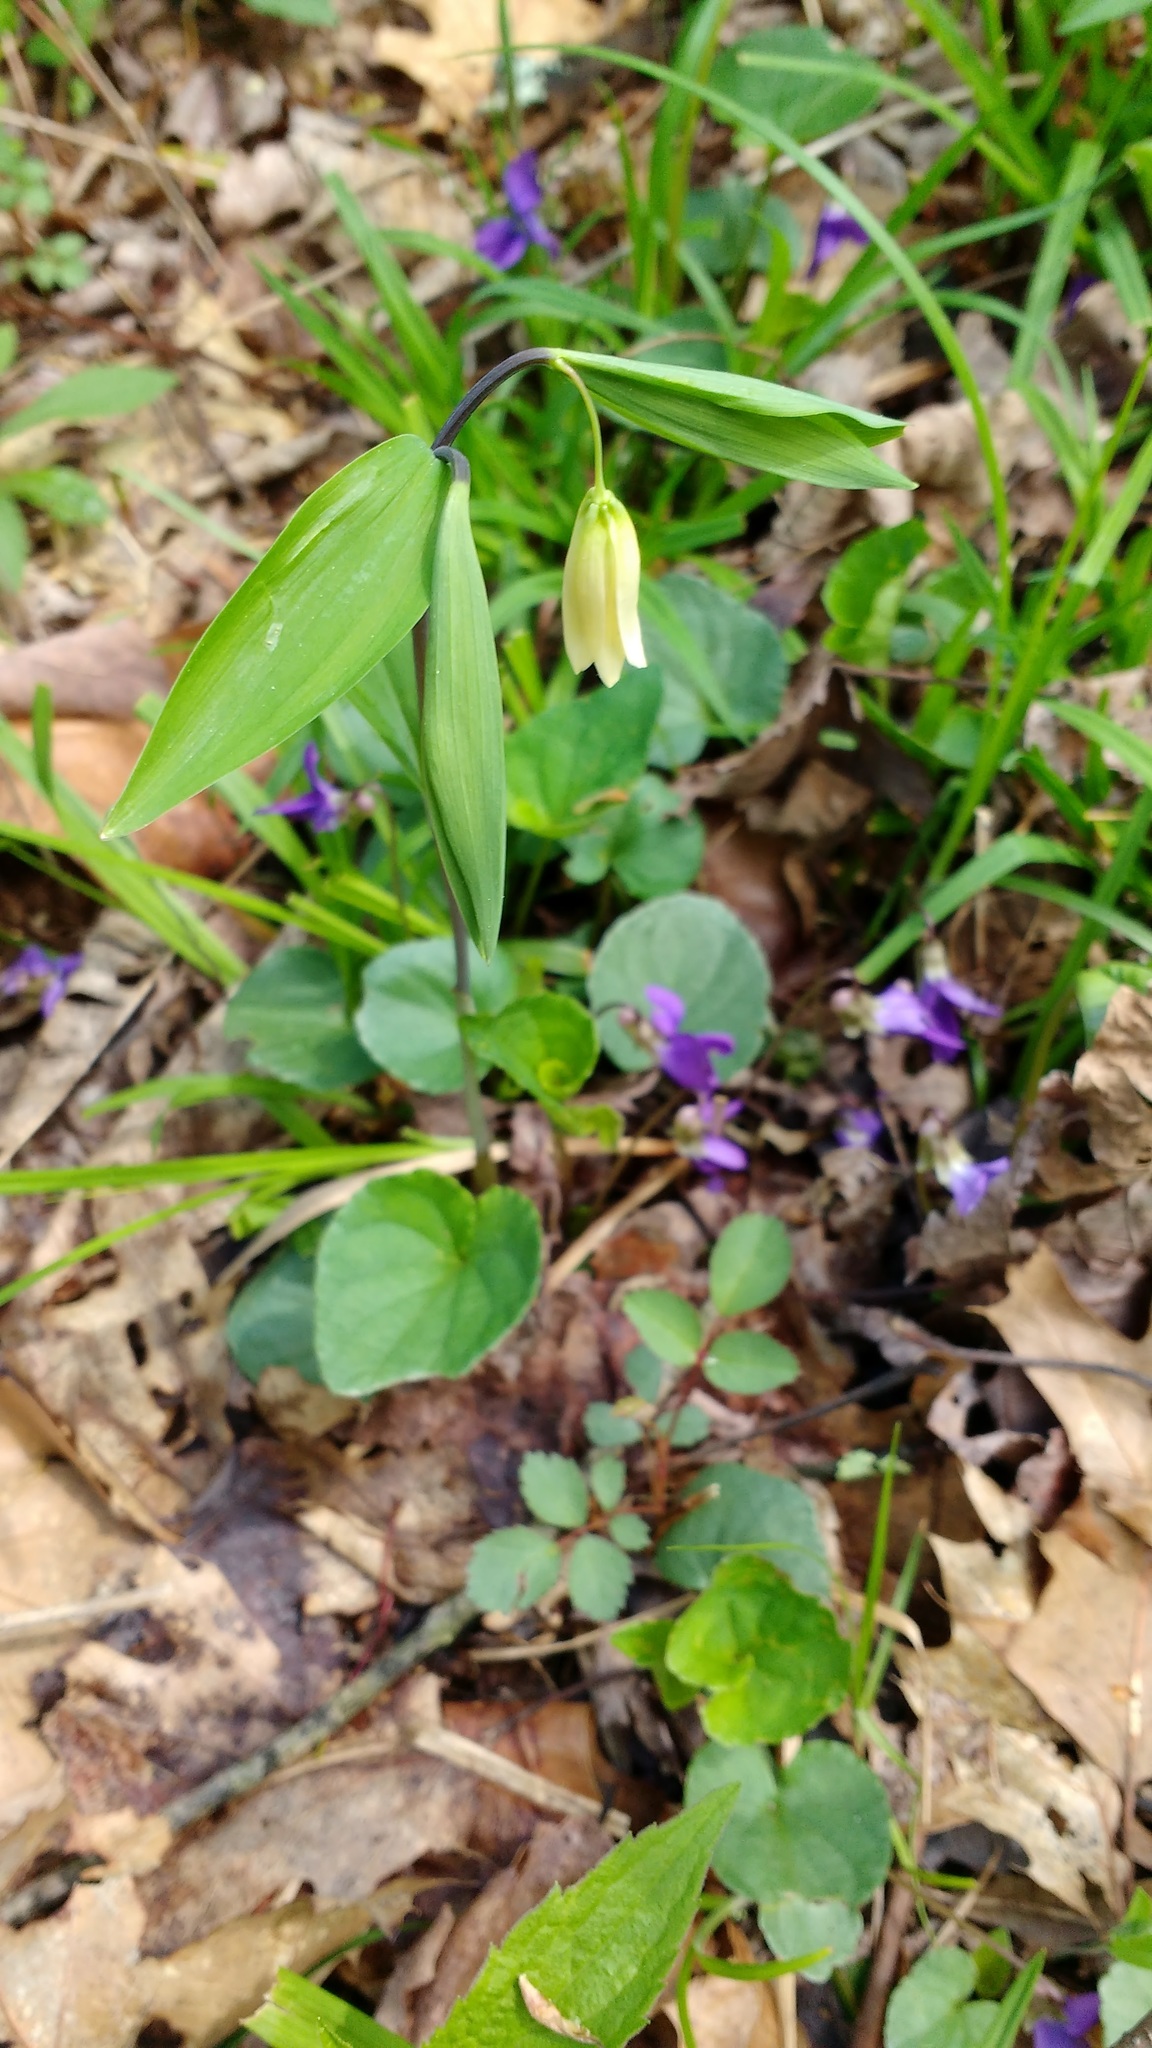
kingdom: Plantae
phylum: Tracheophyta
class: Liliopsida
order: Liliales
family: Colchicaceae
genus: Uvularia
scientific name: Uvularia sessilifolia
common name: Straw-lily
